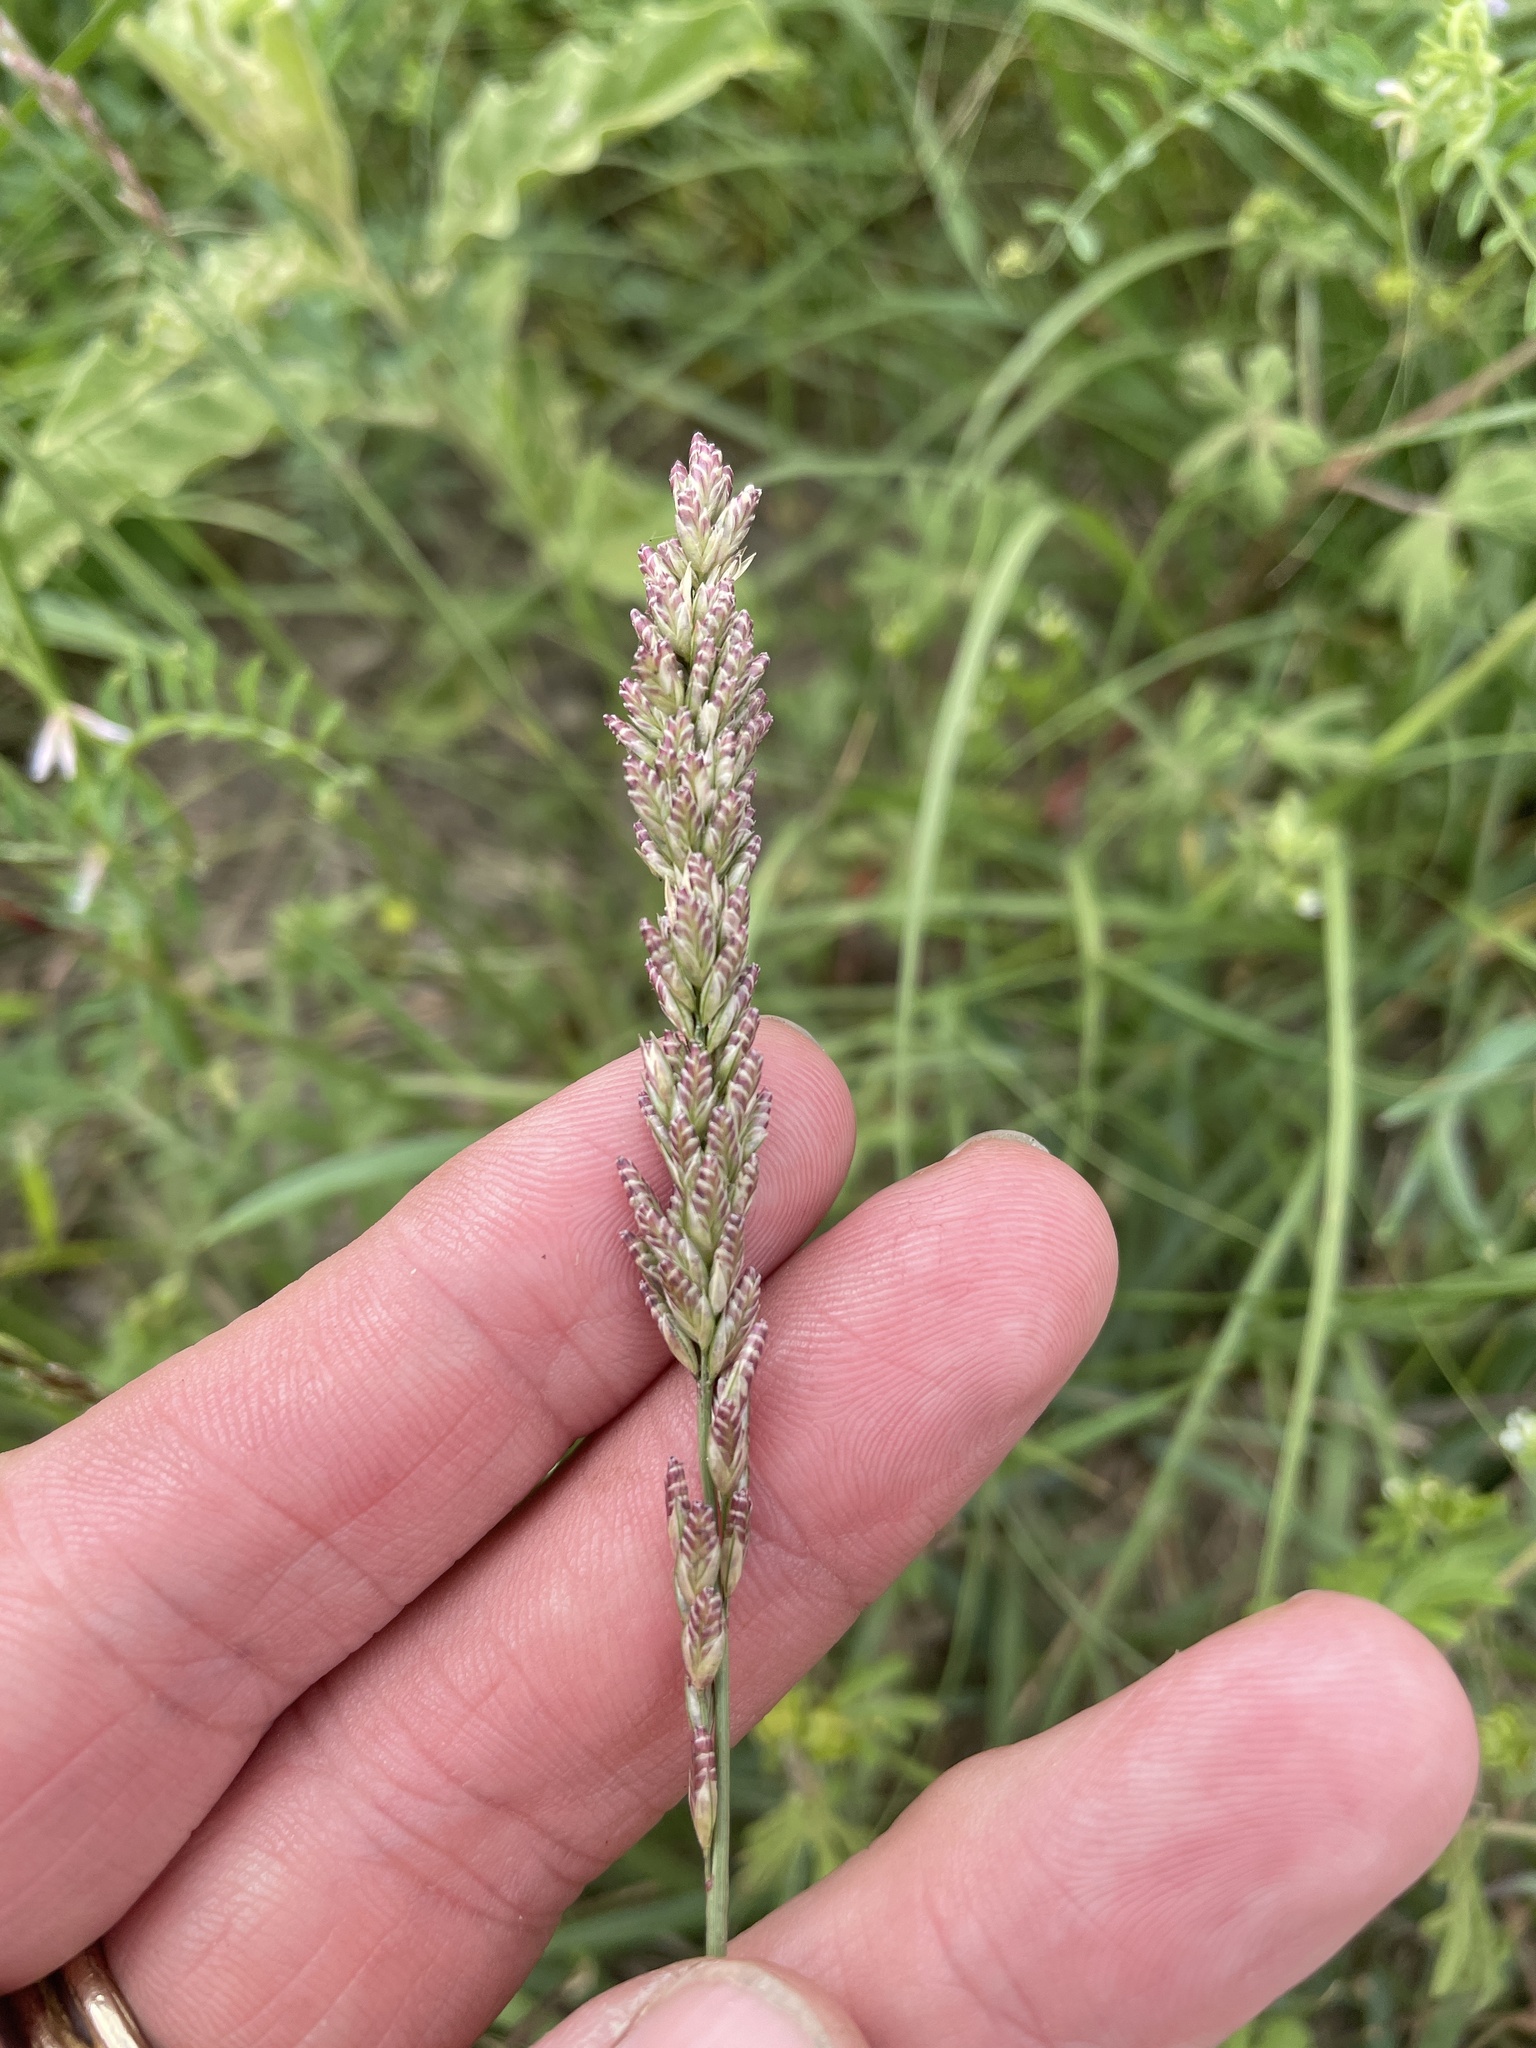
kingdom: Plantae
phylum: Tracheophyta
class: Liliopsida
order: Poales
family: Poaceae
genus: Tridens
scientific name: Tridens albescens
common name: White tridens
